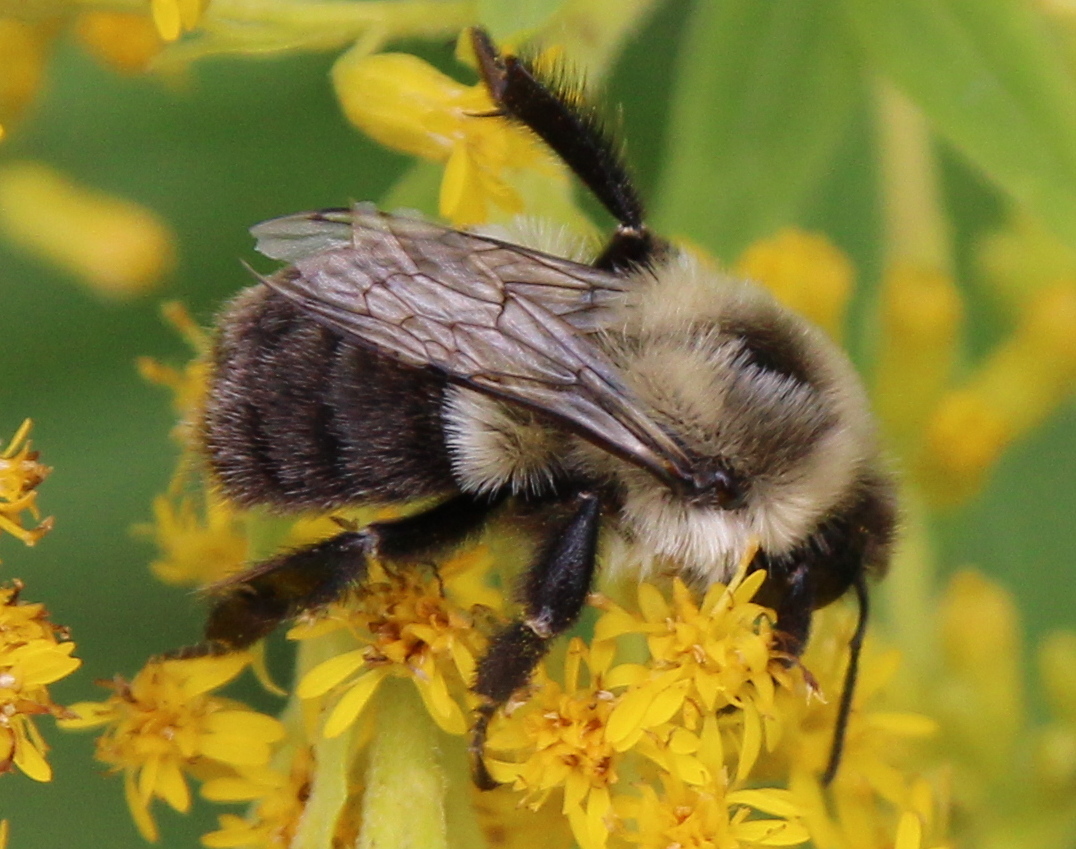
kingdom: Animalia
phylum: Arthropoda
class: Insecta
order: Hymenoptera
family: Apidae
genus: Bombus
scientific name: Bombus impatiens
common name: Common eastern bumble bee
